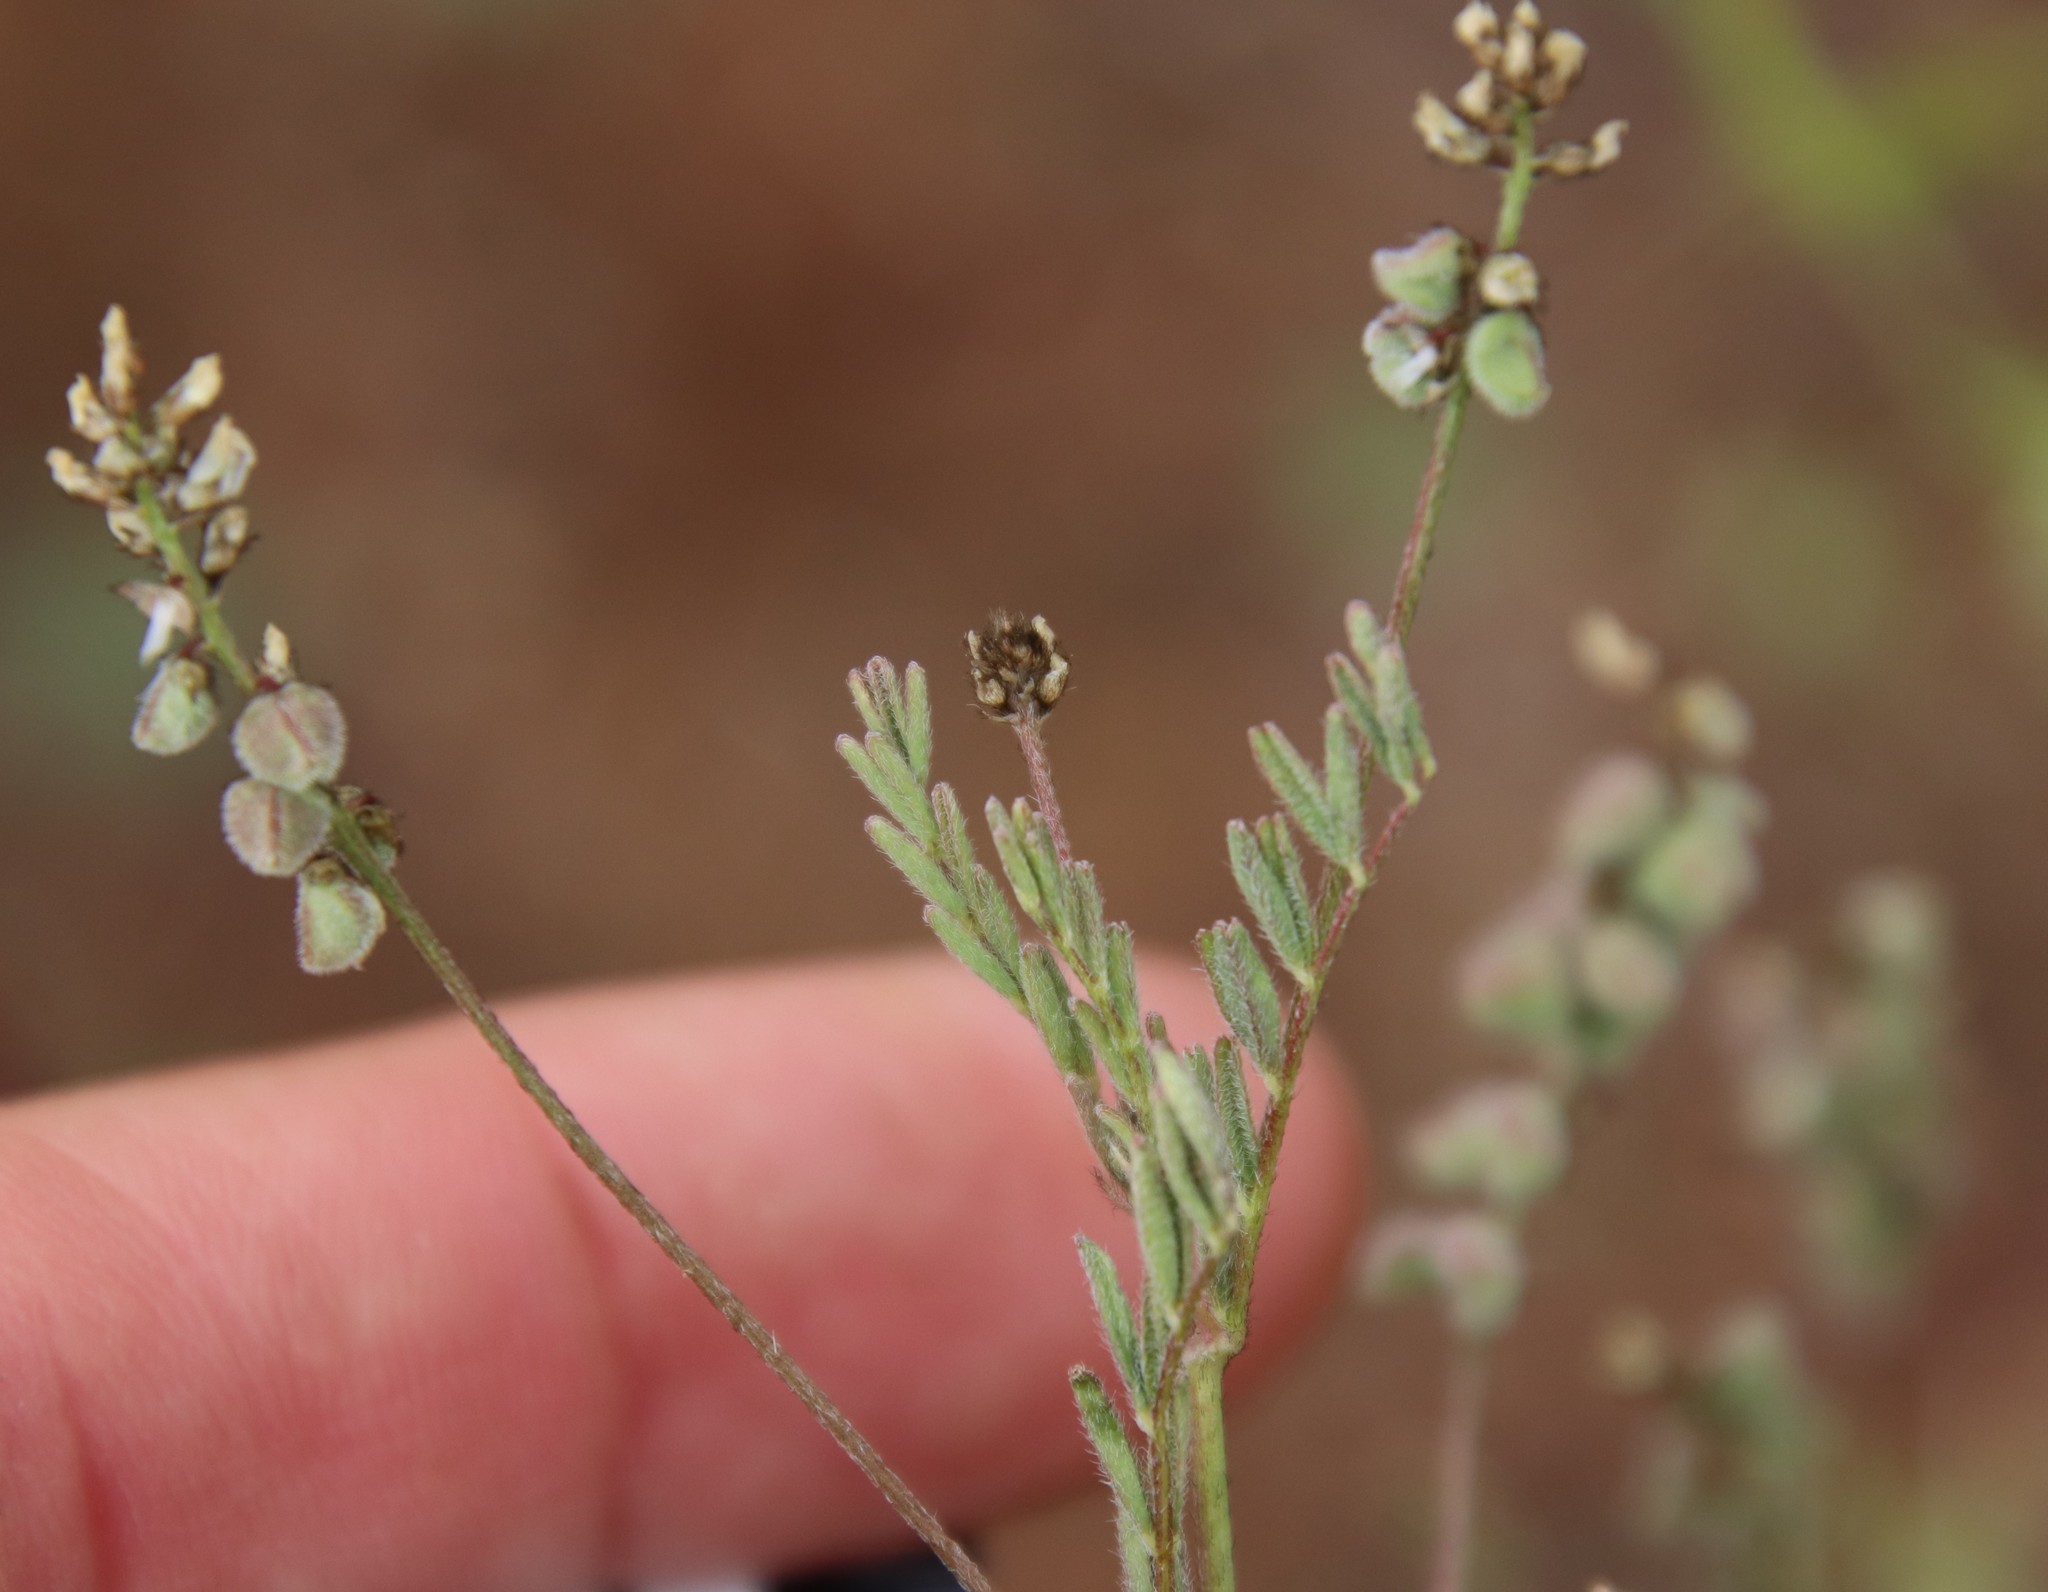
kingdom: Plantae
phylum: Tracheophyta
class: Magnoliopsida
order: Fabales
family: Fabaceae
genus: Astragalus
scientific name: Astragalus gambelianus
